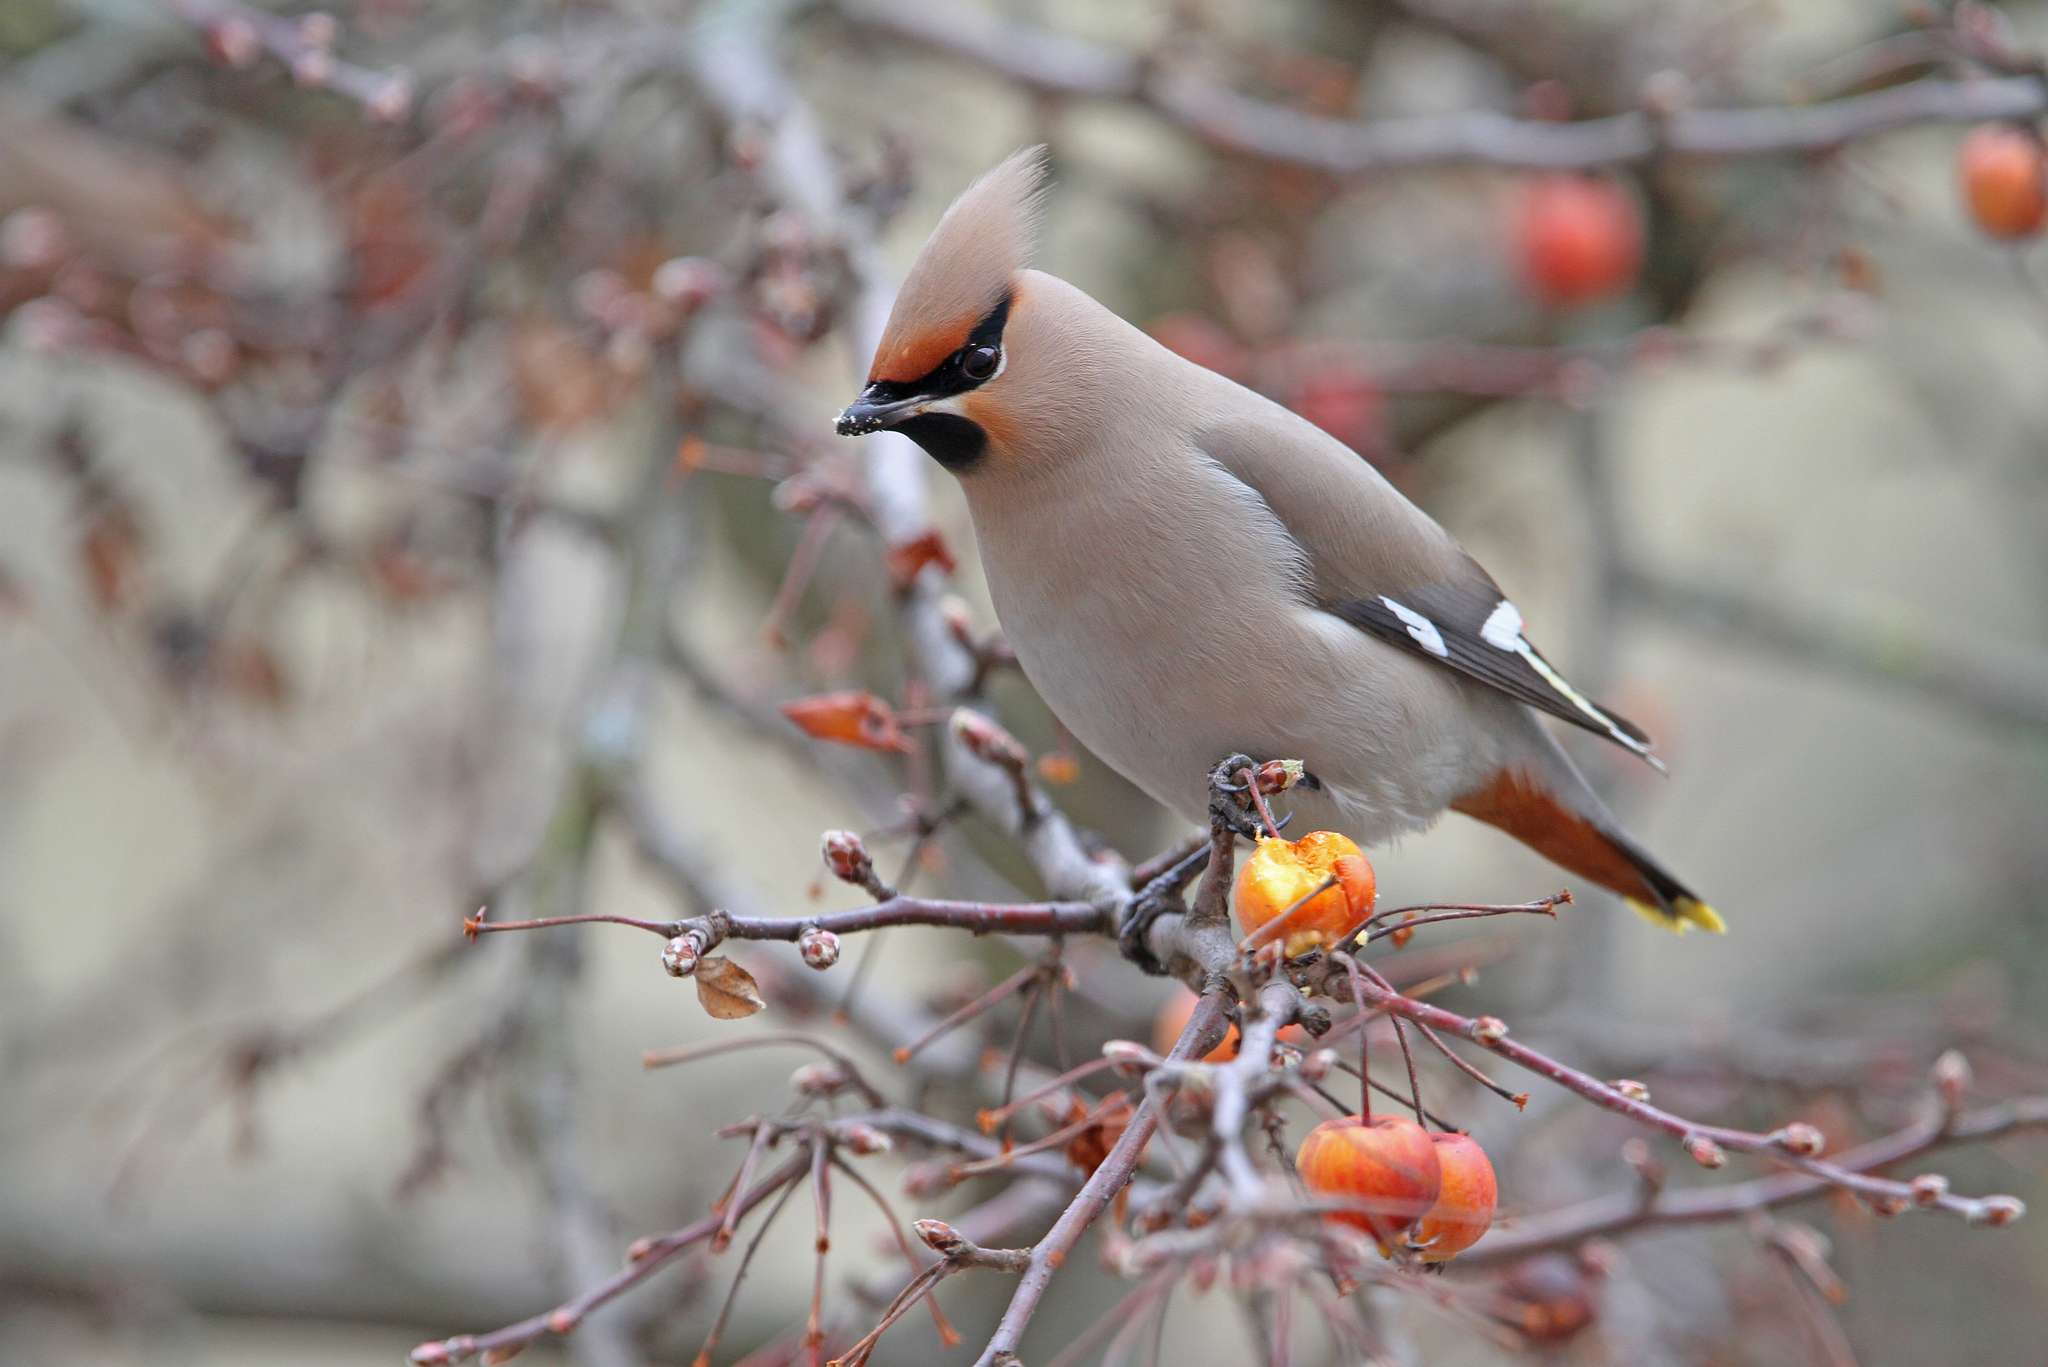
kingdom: Animalia
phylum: Chordata
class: Aves
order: Passeriformes
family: Bombycillidae
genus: Bombycilla
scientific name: Bombycilla garrulus
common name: Bohemian waxwing
